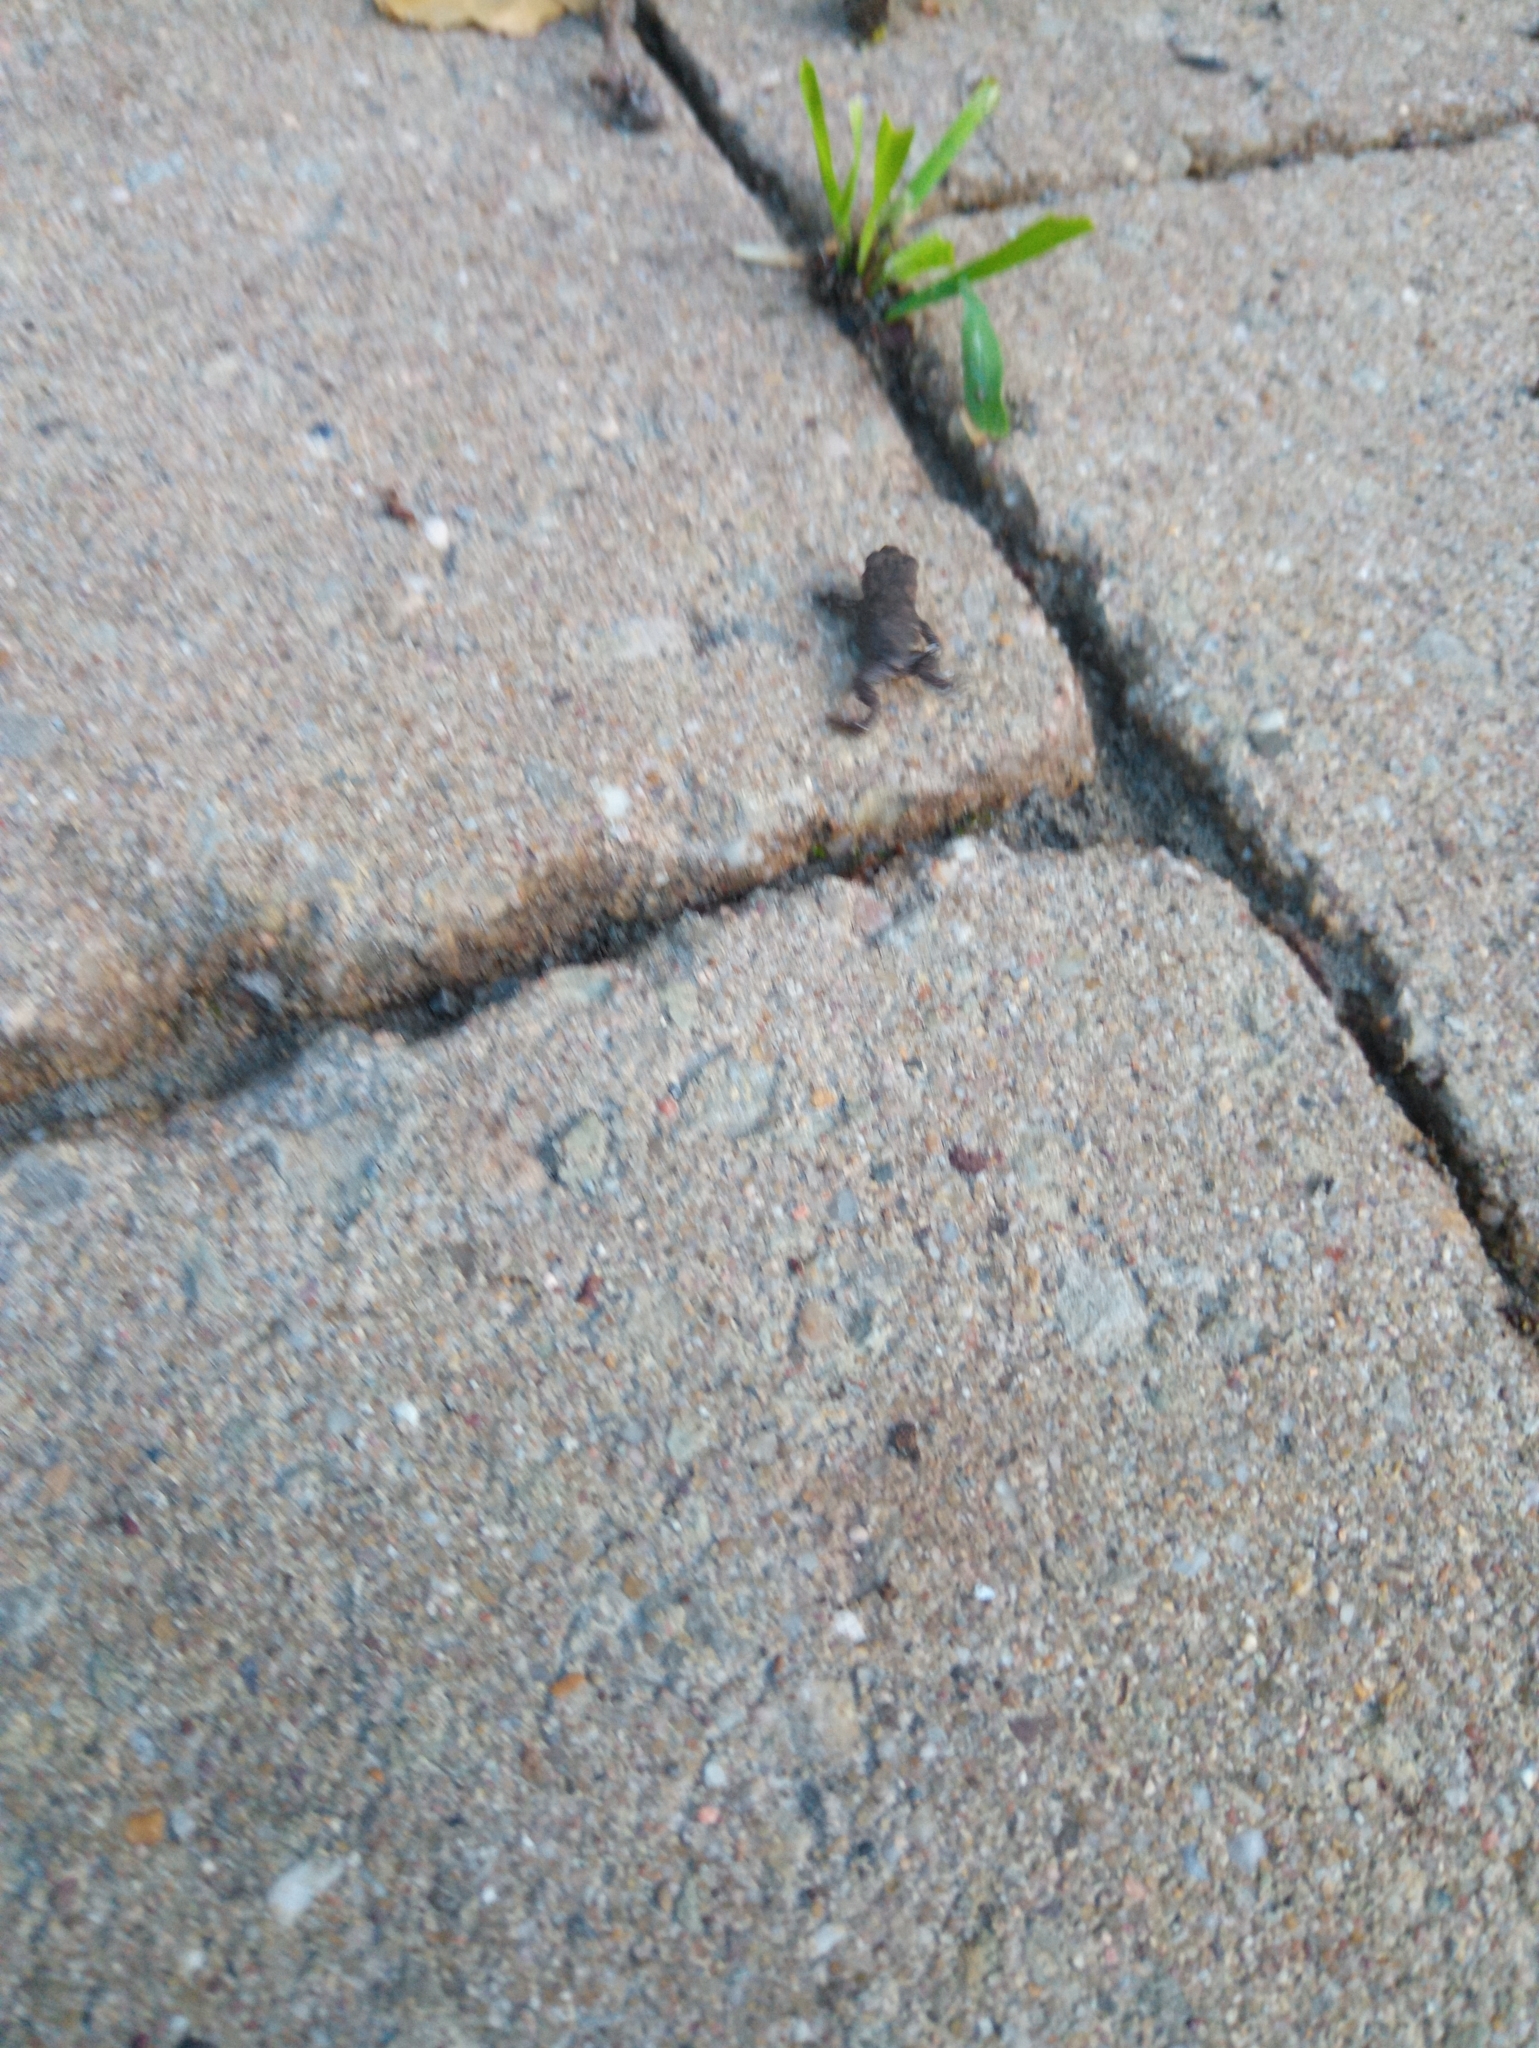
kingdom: Animalia
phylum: Chordata
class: Amphibia
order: Anura
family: Bufonidae
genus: Bufo
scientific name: Bufo bufo
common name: Common toad
